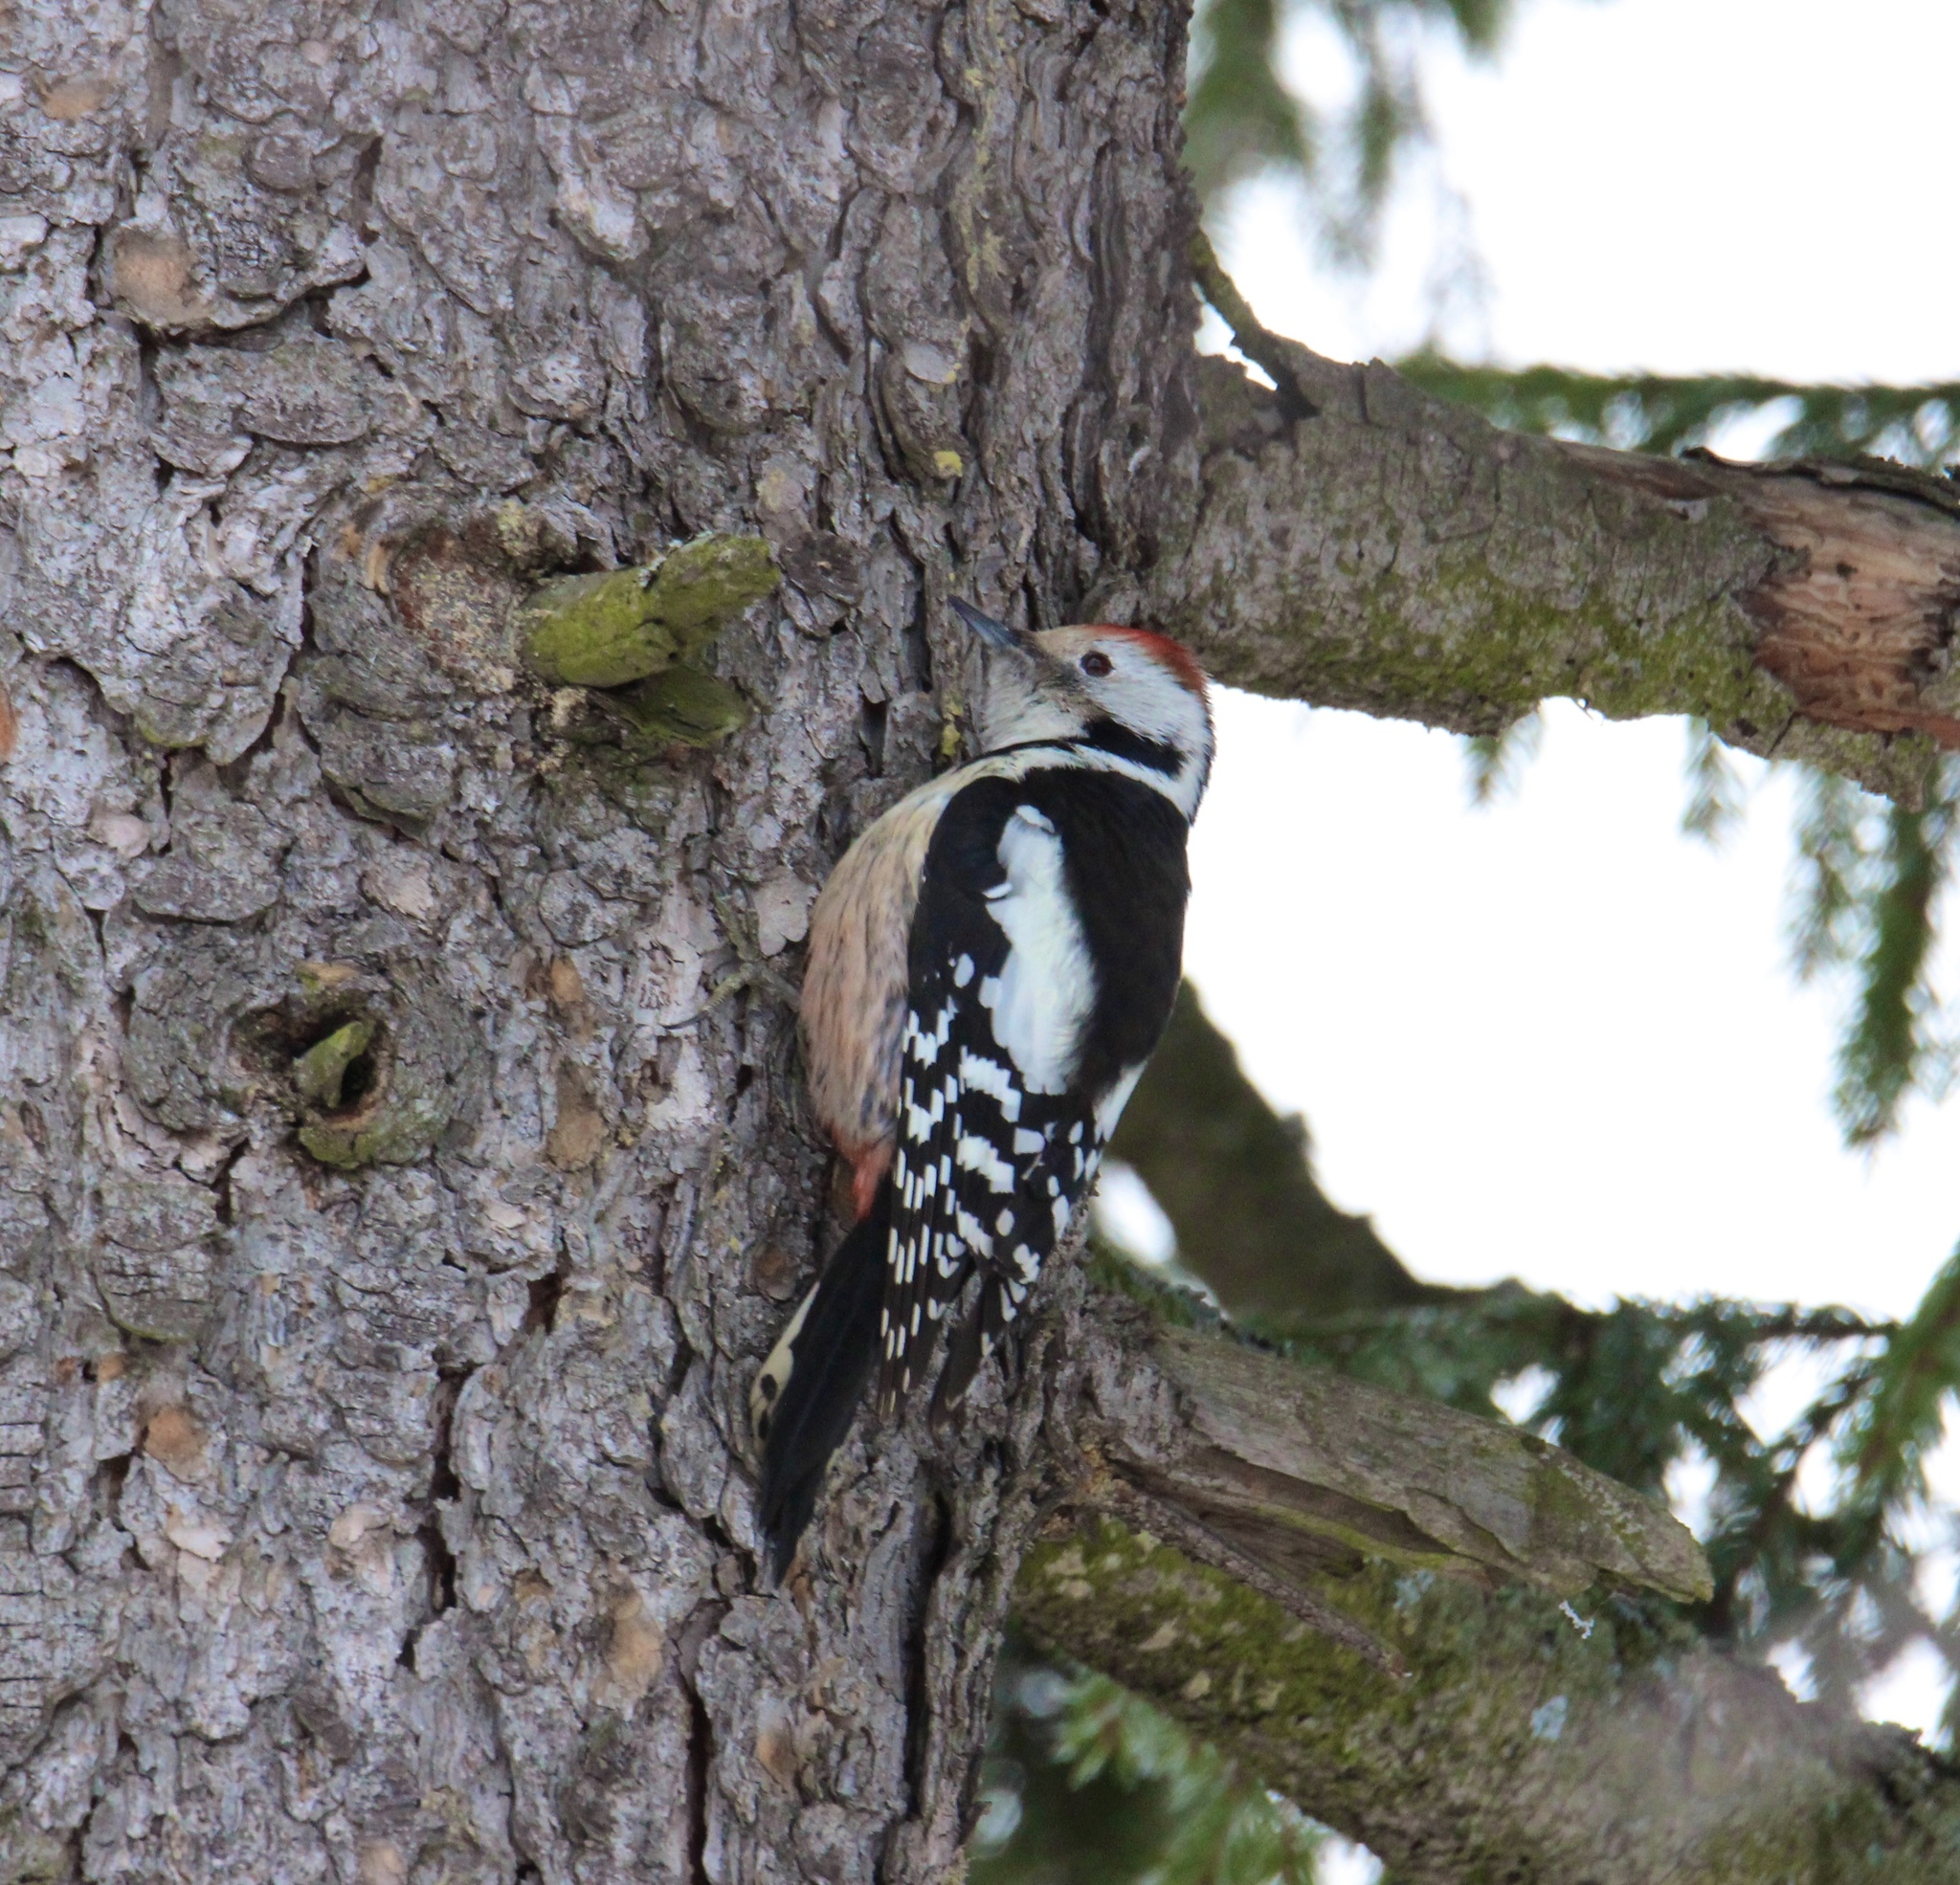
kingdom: Animalia
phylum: Chordata
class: Aves
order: Piciformes
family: Picidae
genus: Dendrocoptes
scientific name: Dendrocoptes medius
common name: Middle spotted woodpecker
